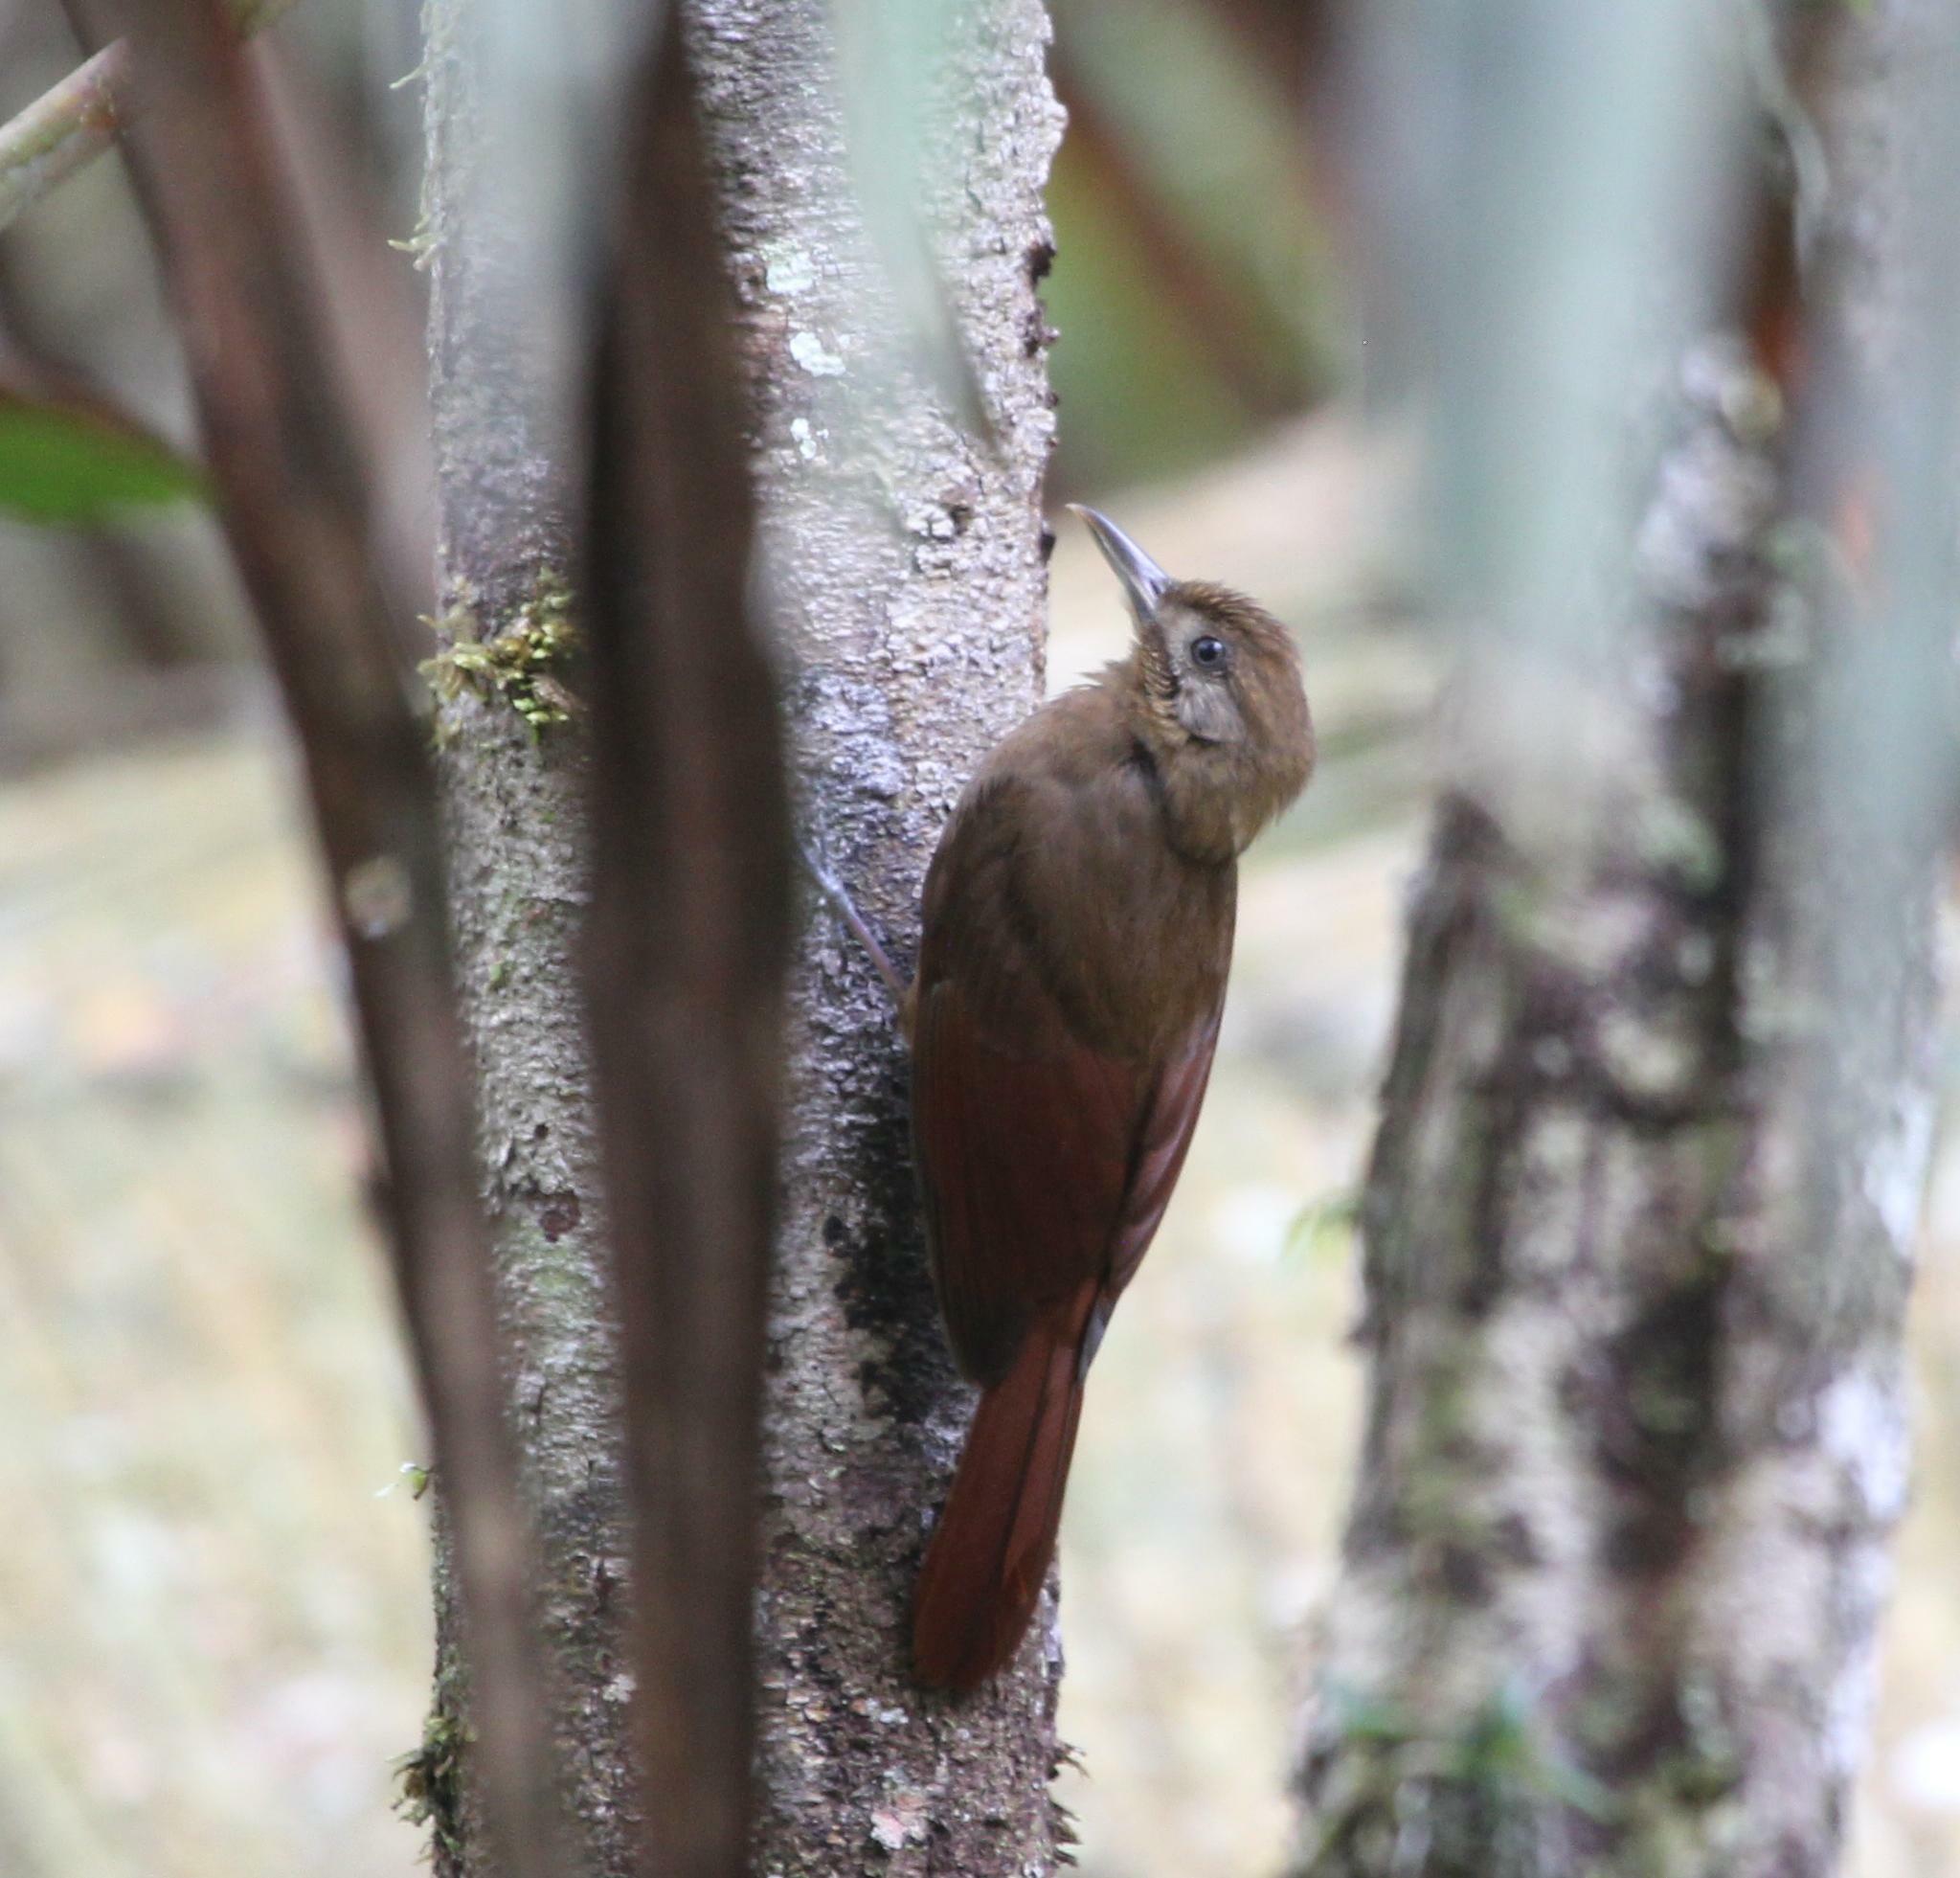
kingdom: Animalia
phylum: Chordata
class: Aves
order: Passeriformes
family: Furnariidae
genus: Dendrocincla
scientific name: Dendrocincla fuliginosa
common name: Plain-brown woodcreeper
